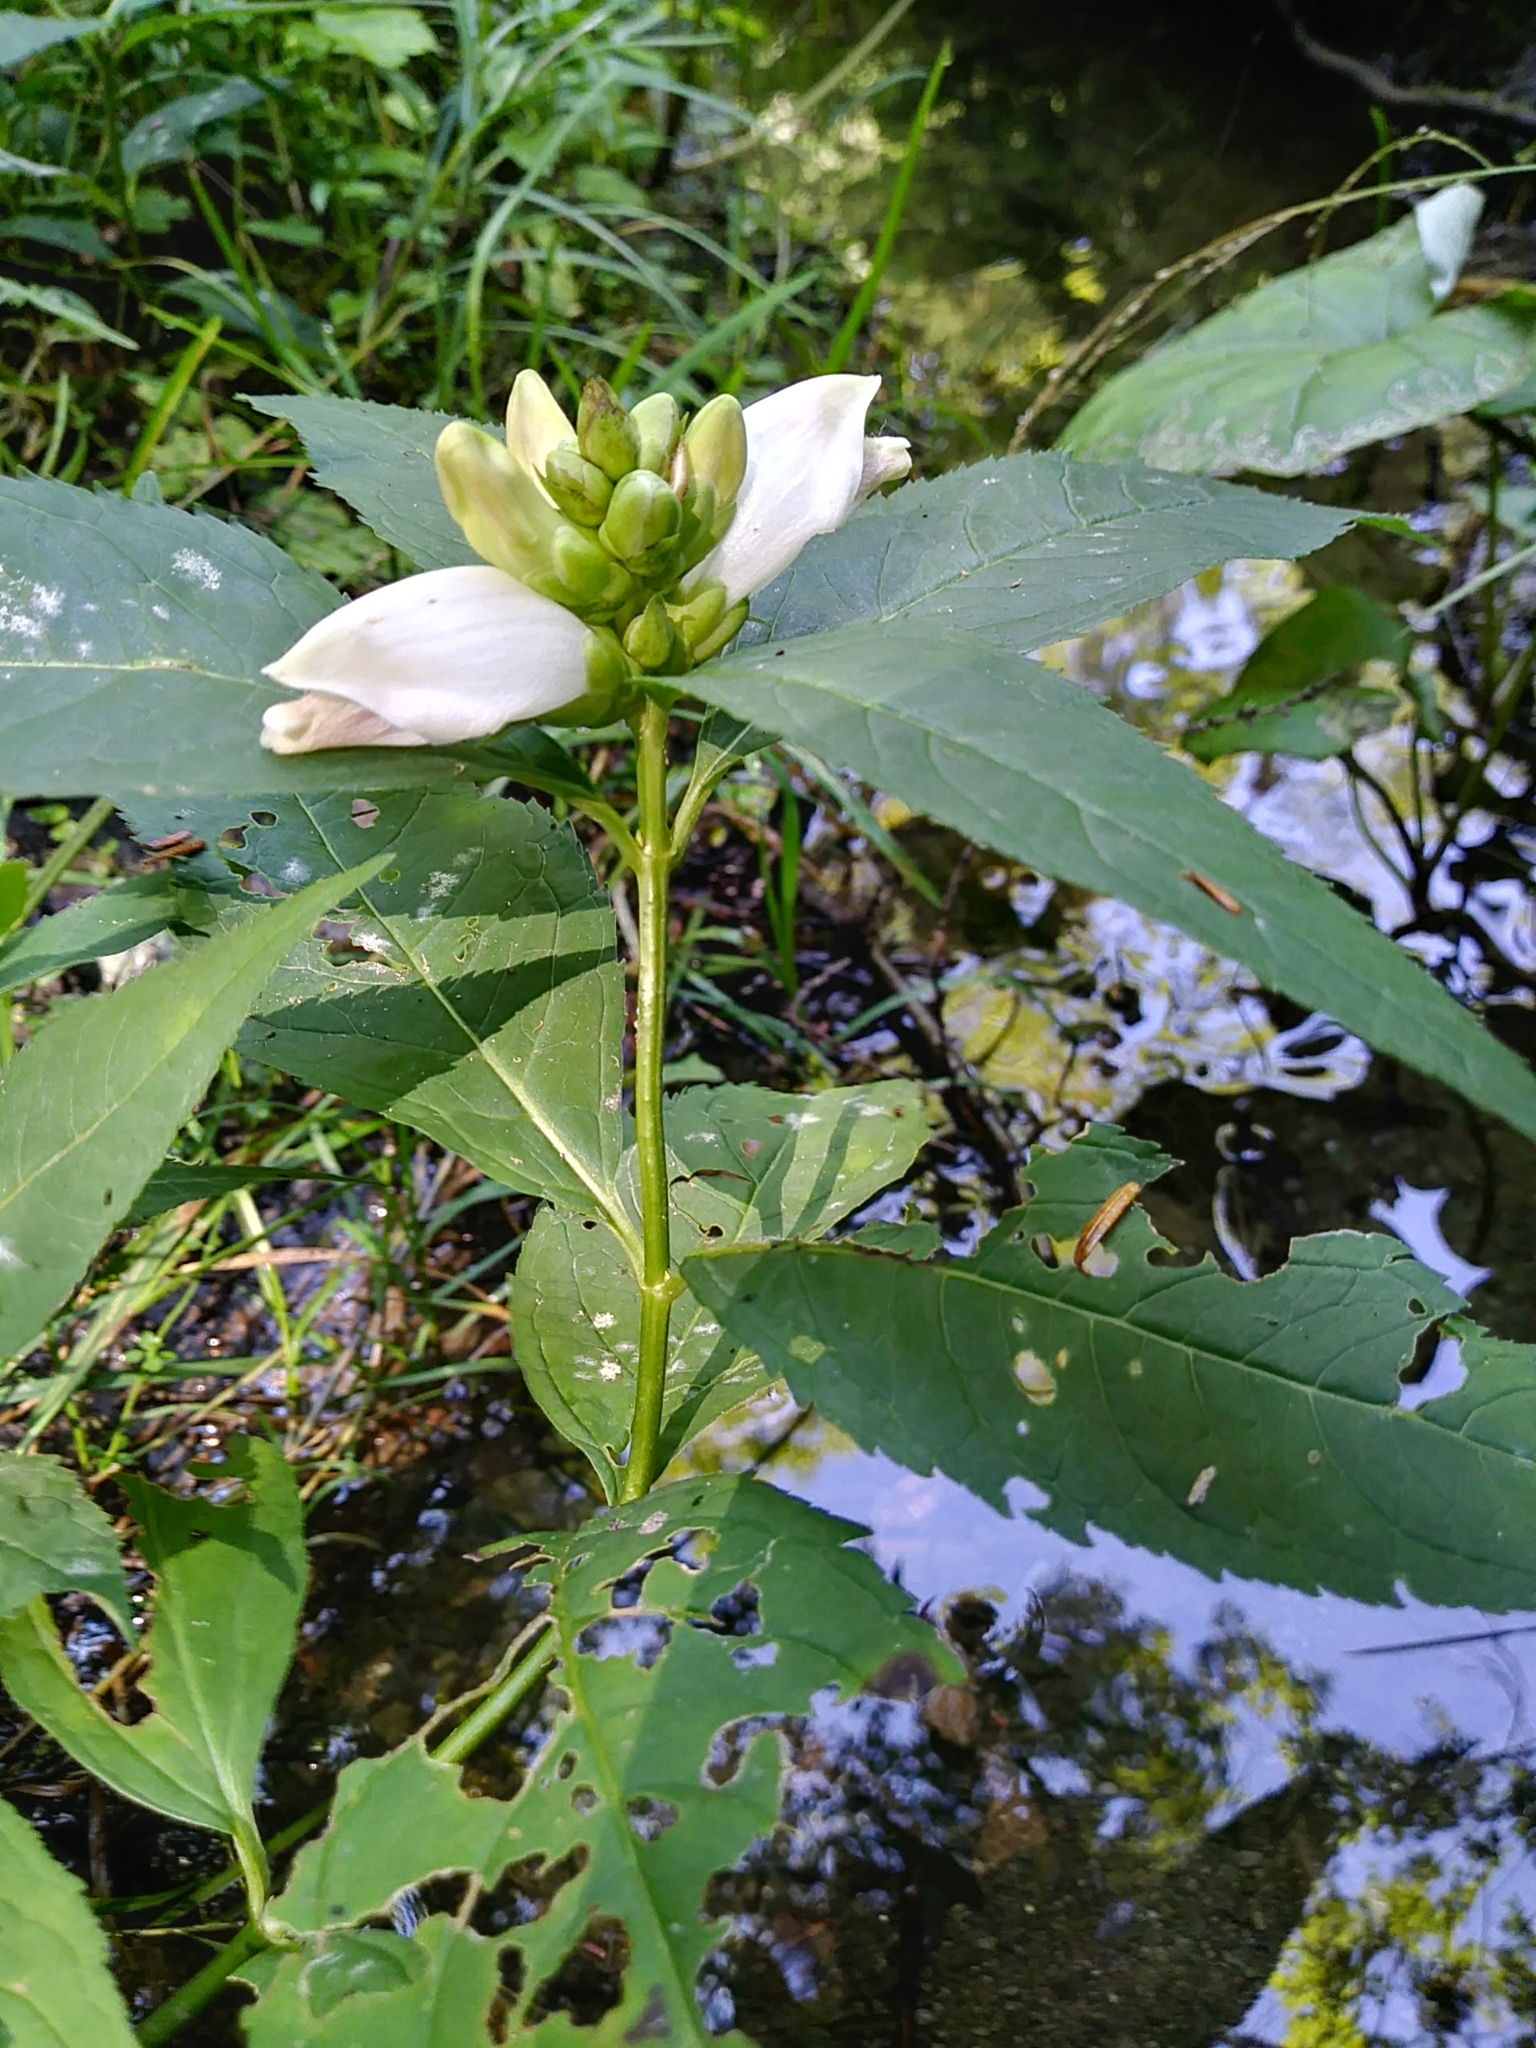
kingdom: Plantae
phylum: Tracheophyta
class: Magnoliopsida
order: Lamiales
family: Plantaginaceae
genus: Chelone
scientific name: Chelone glabra
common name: Snakehead
